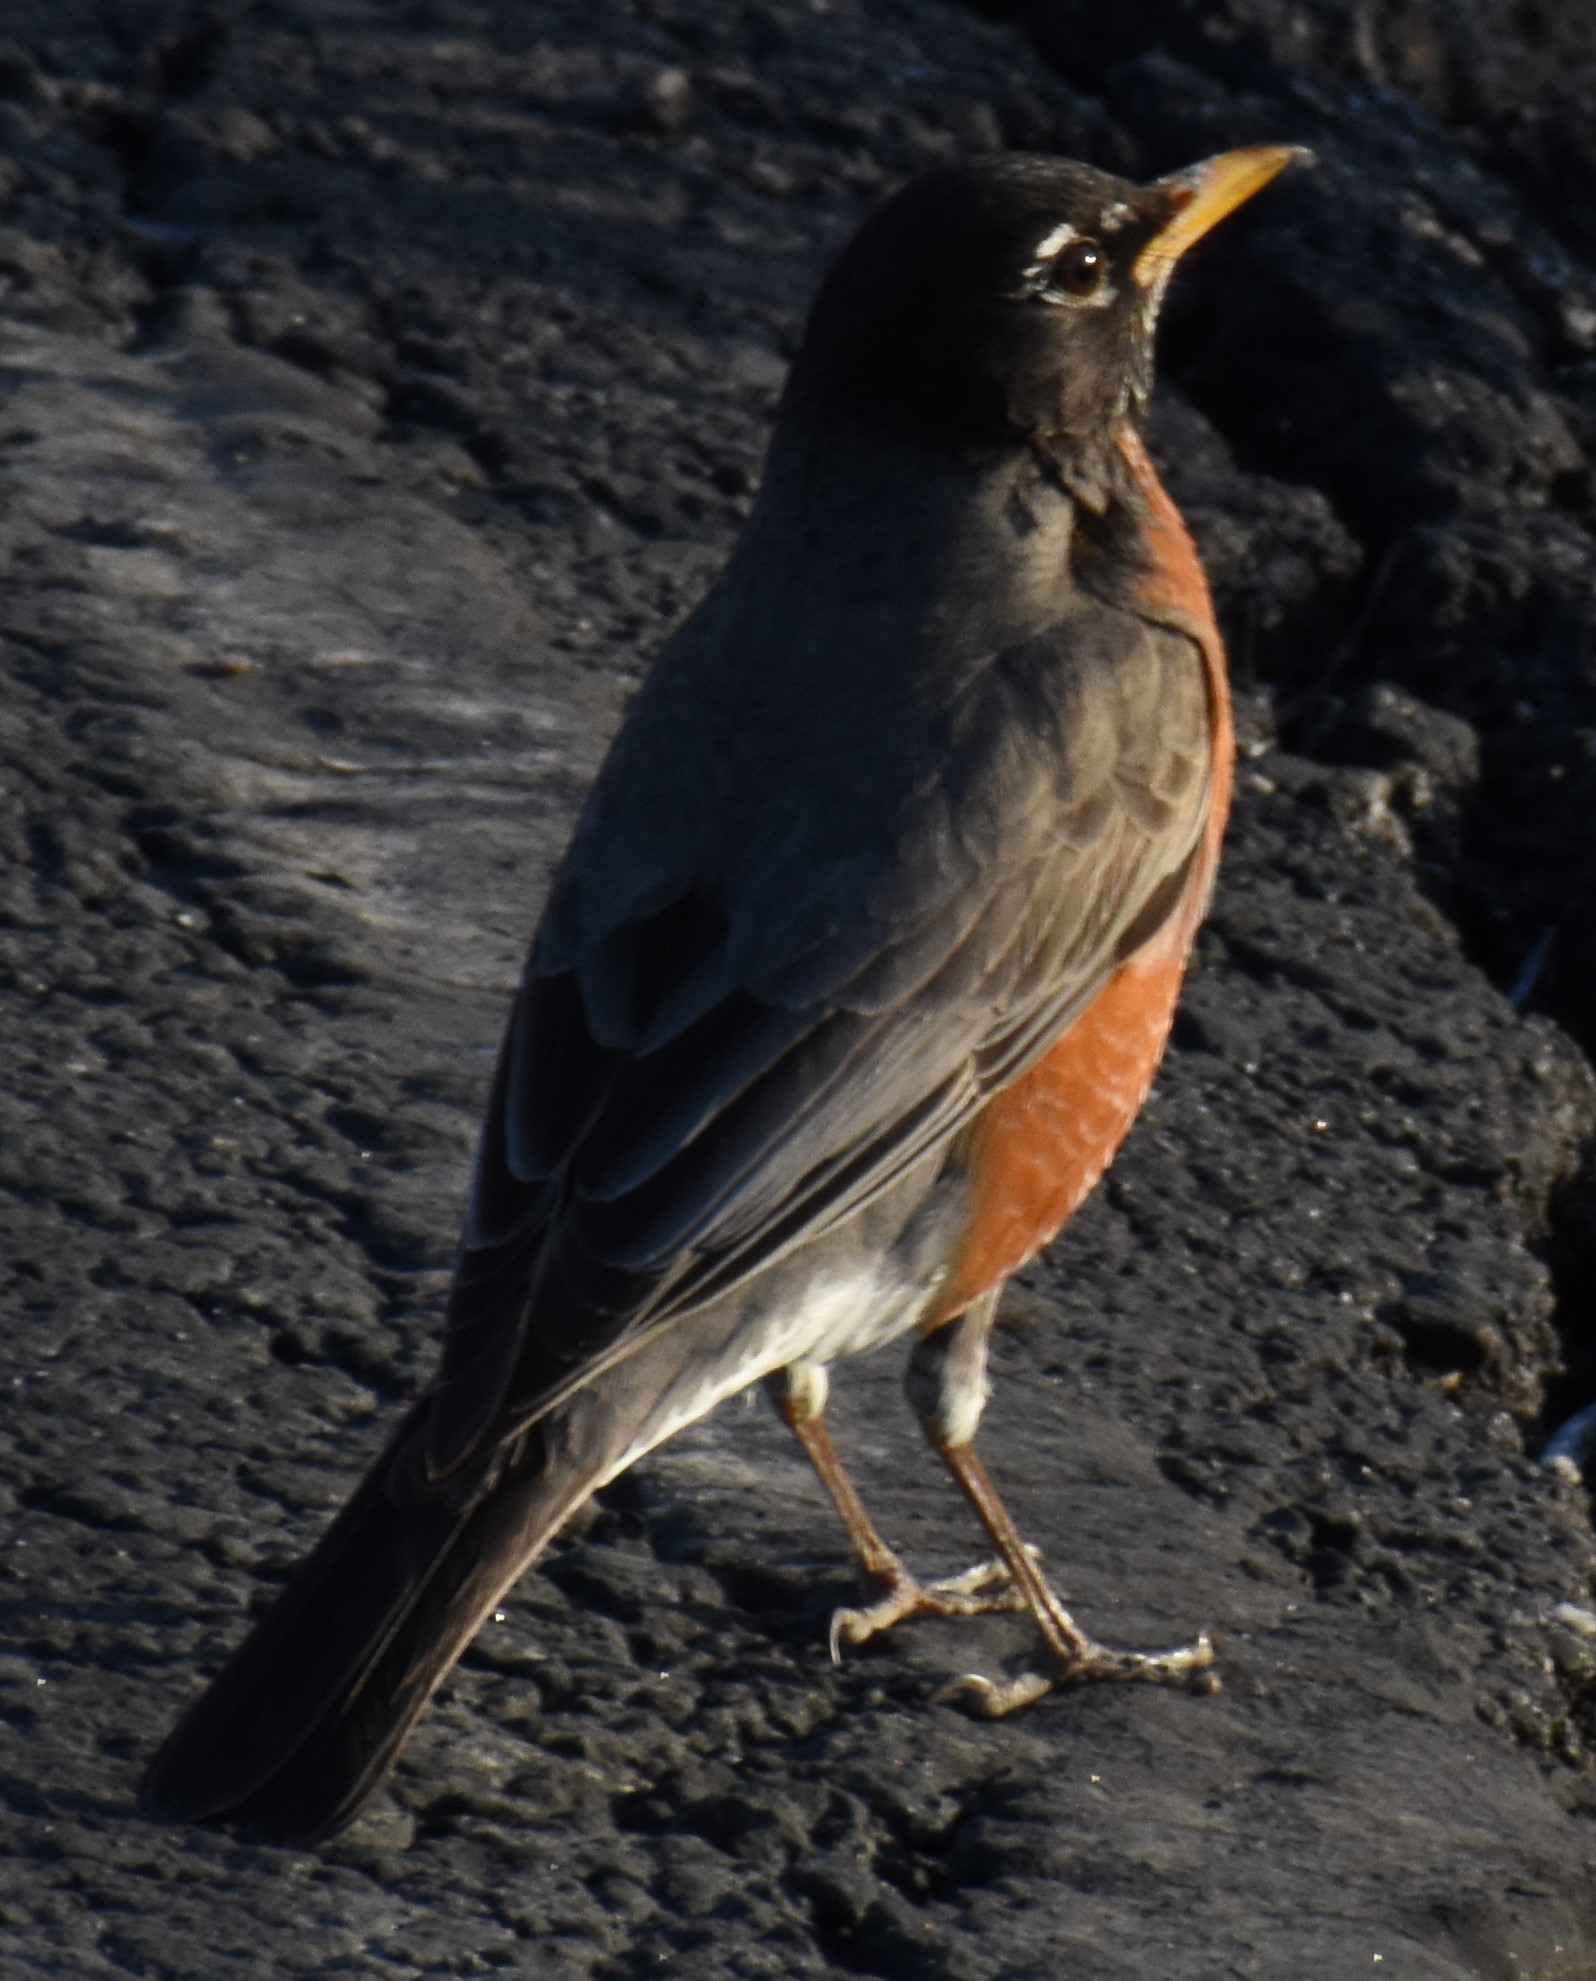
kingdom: Animalia
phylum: Chordata
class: Aves
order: Passeriformes
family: Turdidae
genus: Turdus
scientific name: Turdus migratorius
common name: American robin
